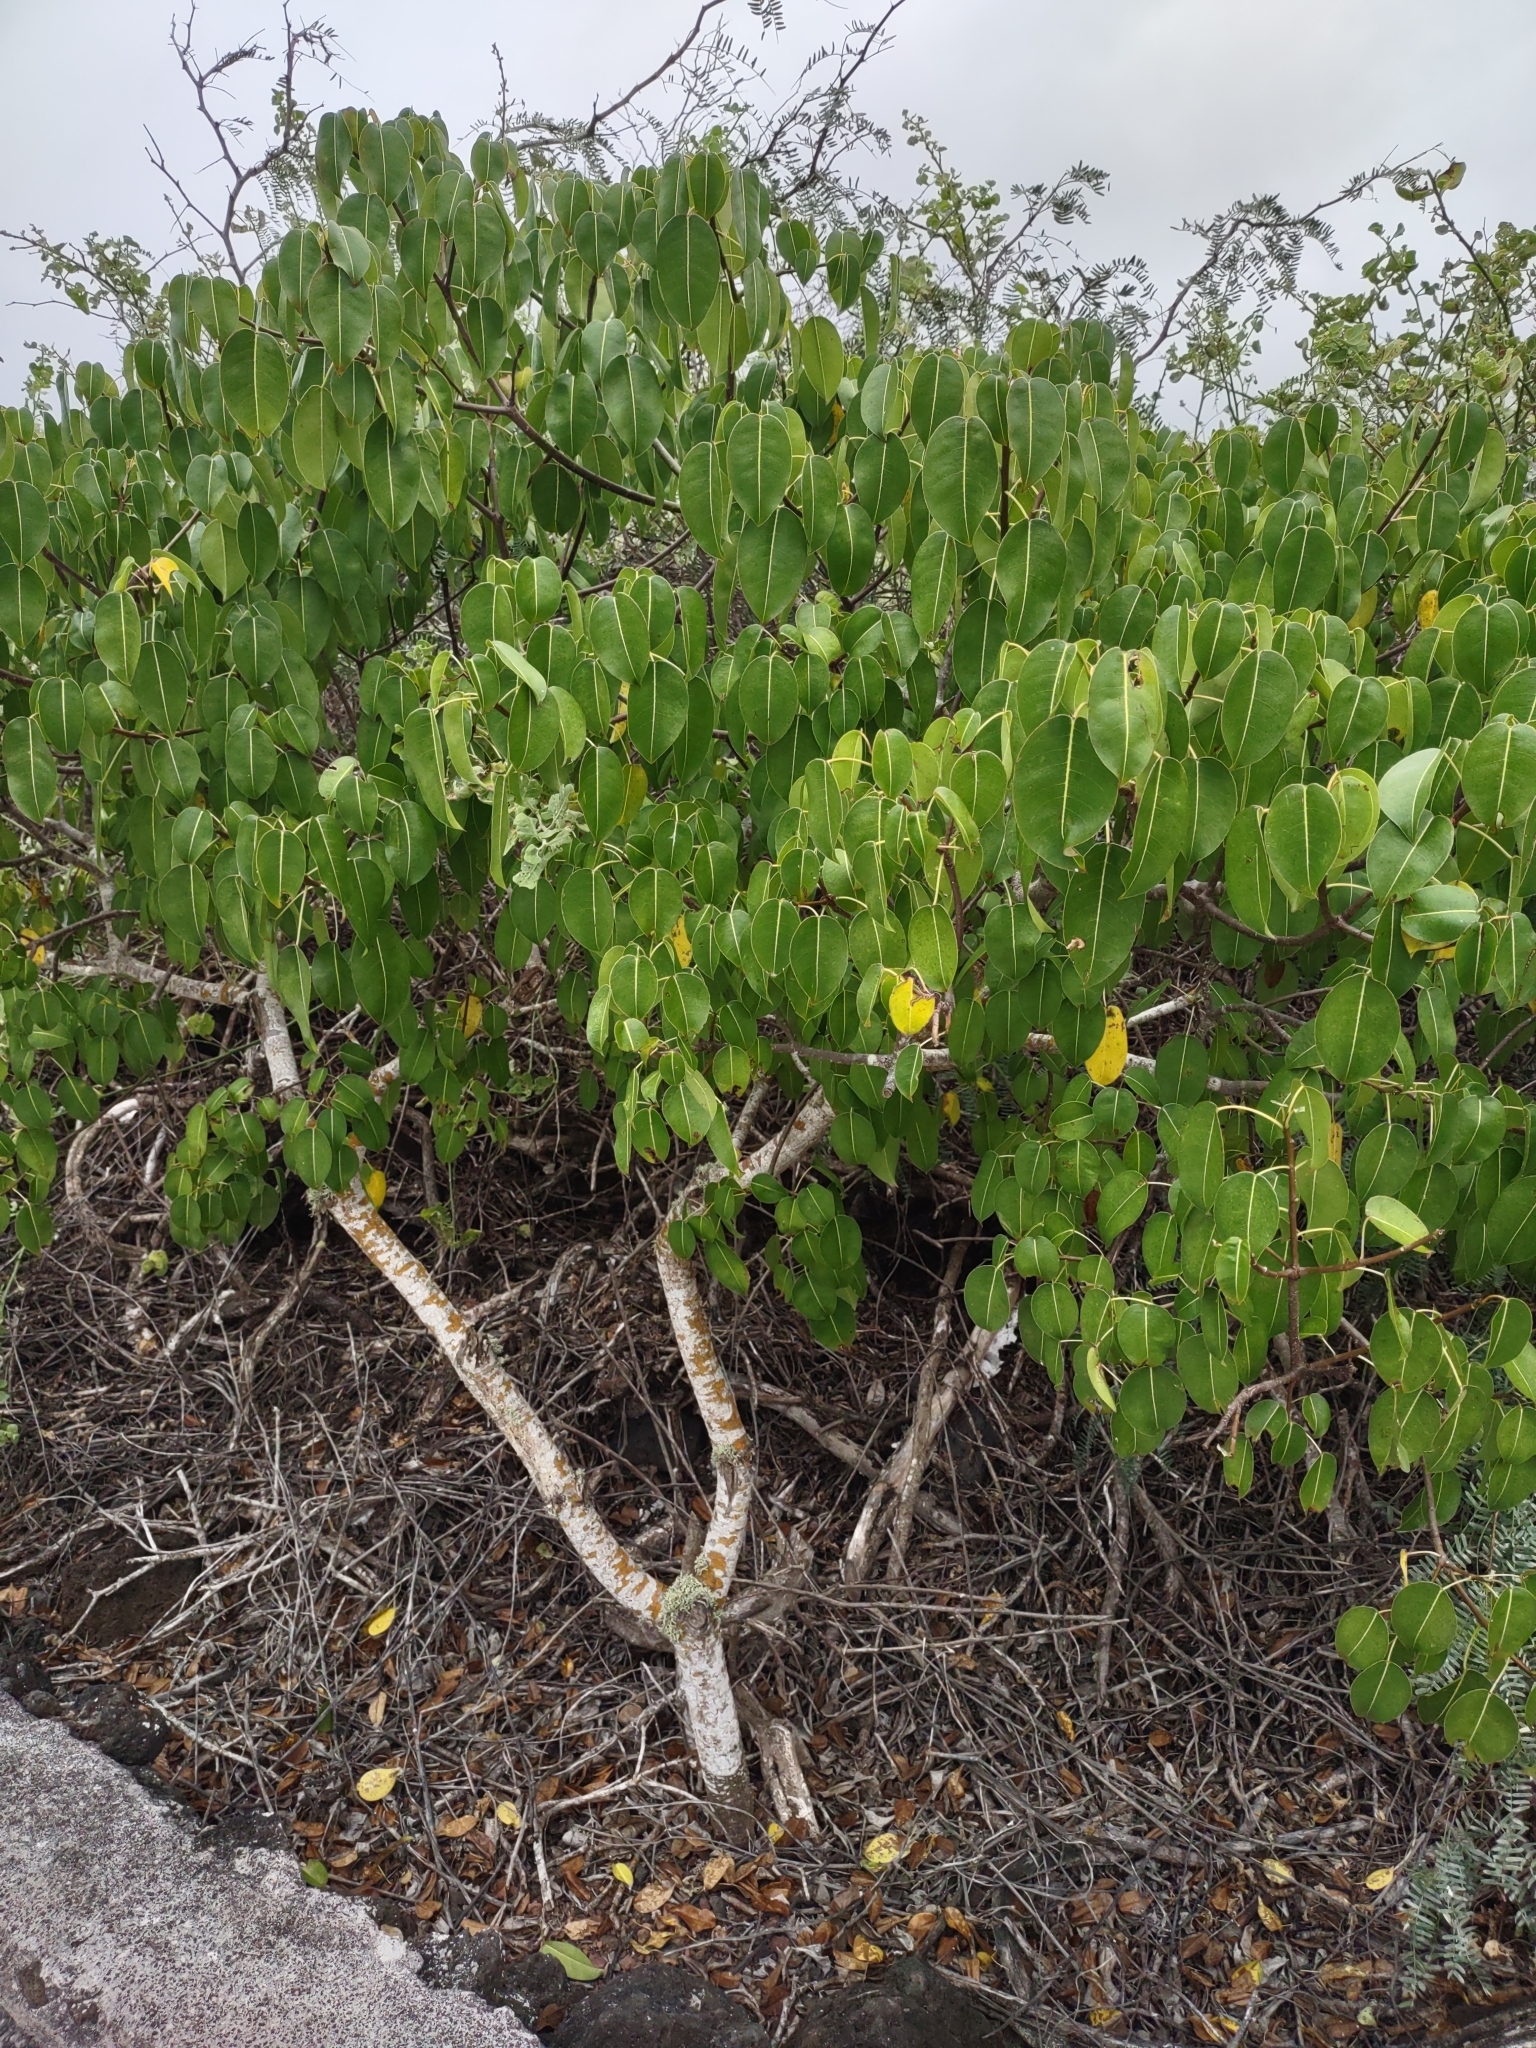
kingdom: Plantae
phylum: Tracheophyta
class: Magnoliopsida
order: Malpighiales
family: Euphorbiaceae
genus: Hippomane
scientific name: Hippomane mancinella
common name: Manchineel
